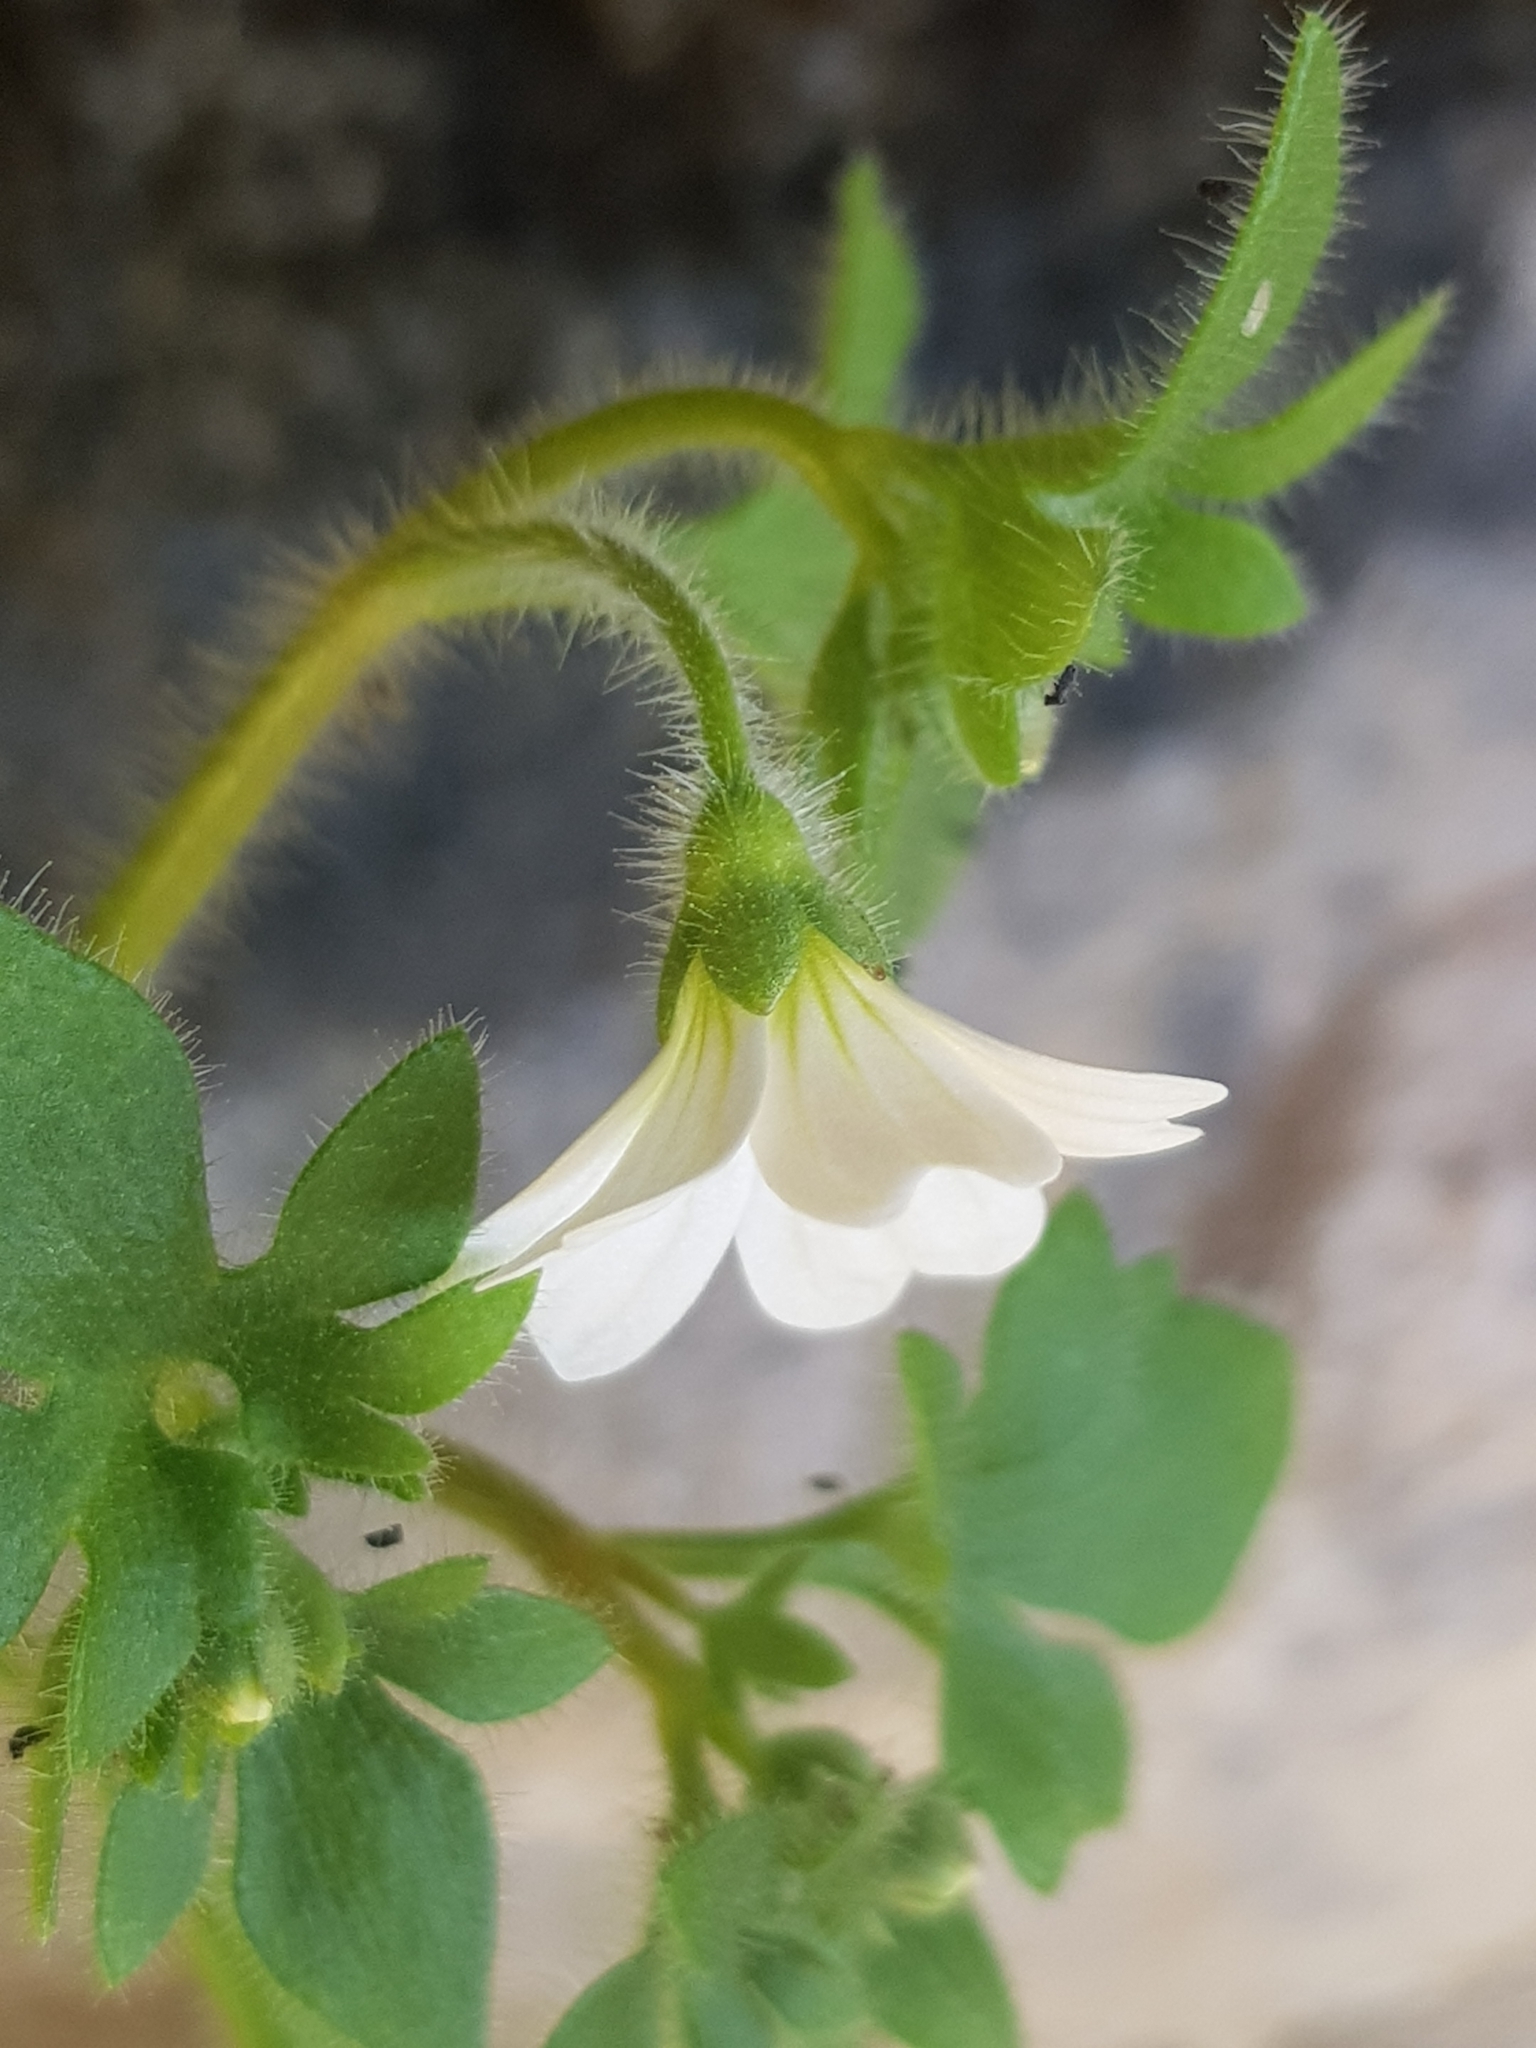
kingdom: Plantae
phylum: Tracheophyta
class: Magnoliopsida
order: Saxifragales
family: Saxifragaceae
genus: Saxifraga
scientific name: Saxifraga petraea
